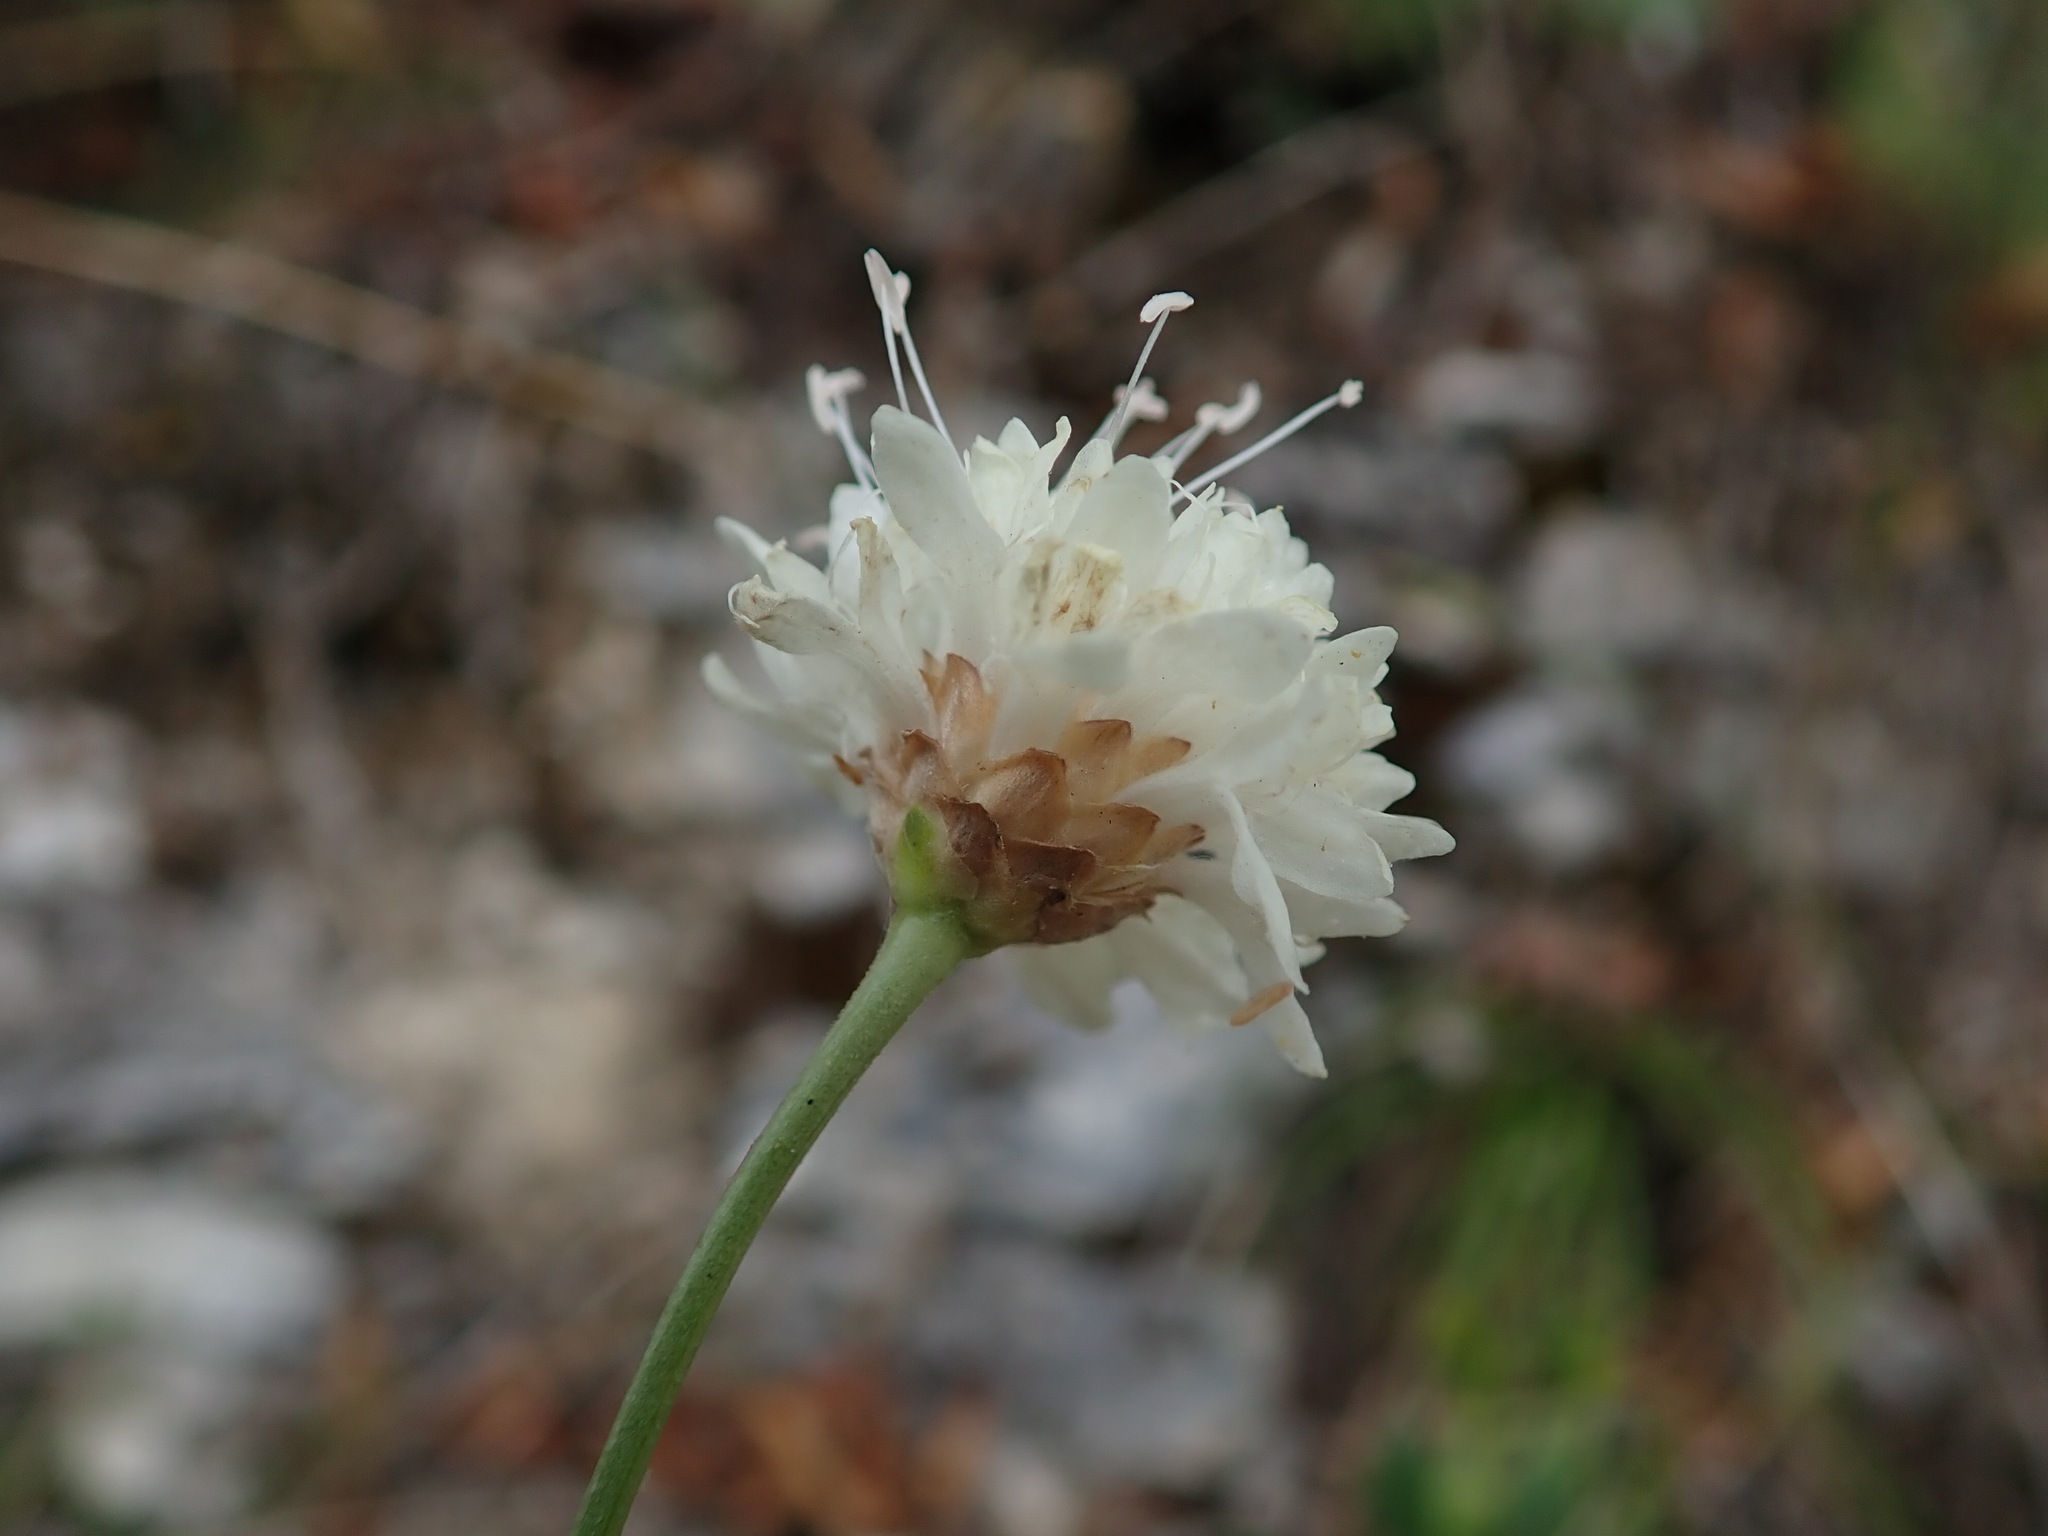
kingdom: Plantae
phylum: Tracheophyta
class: Magnoliopsida
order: Dipsacales
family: Caprifoliaceae
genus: Cephalaria
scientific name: Cephalaria leucantha
